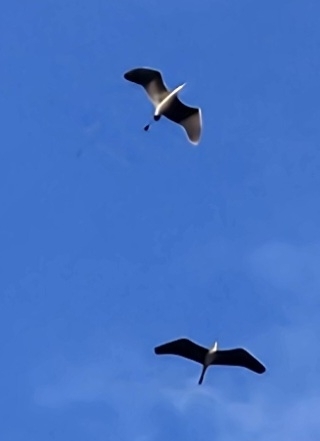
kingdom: Animalia
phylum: Chordata
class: Aves
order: Pelecaniformes
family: Ardeidae
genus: Ardea
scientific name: Ardea herodias
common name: Great blue heron
